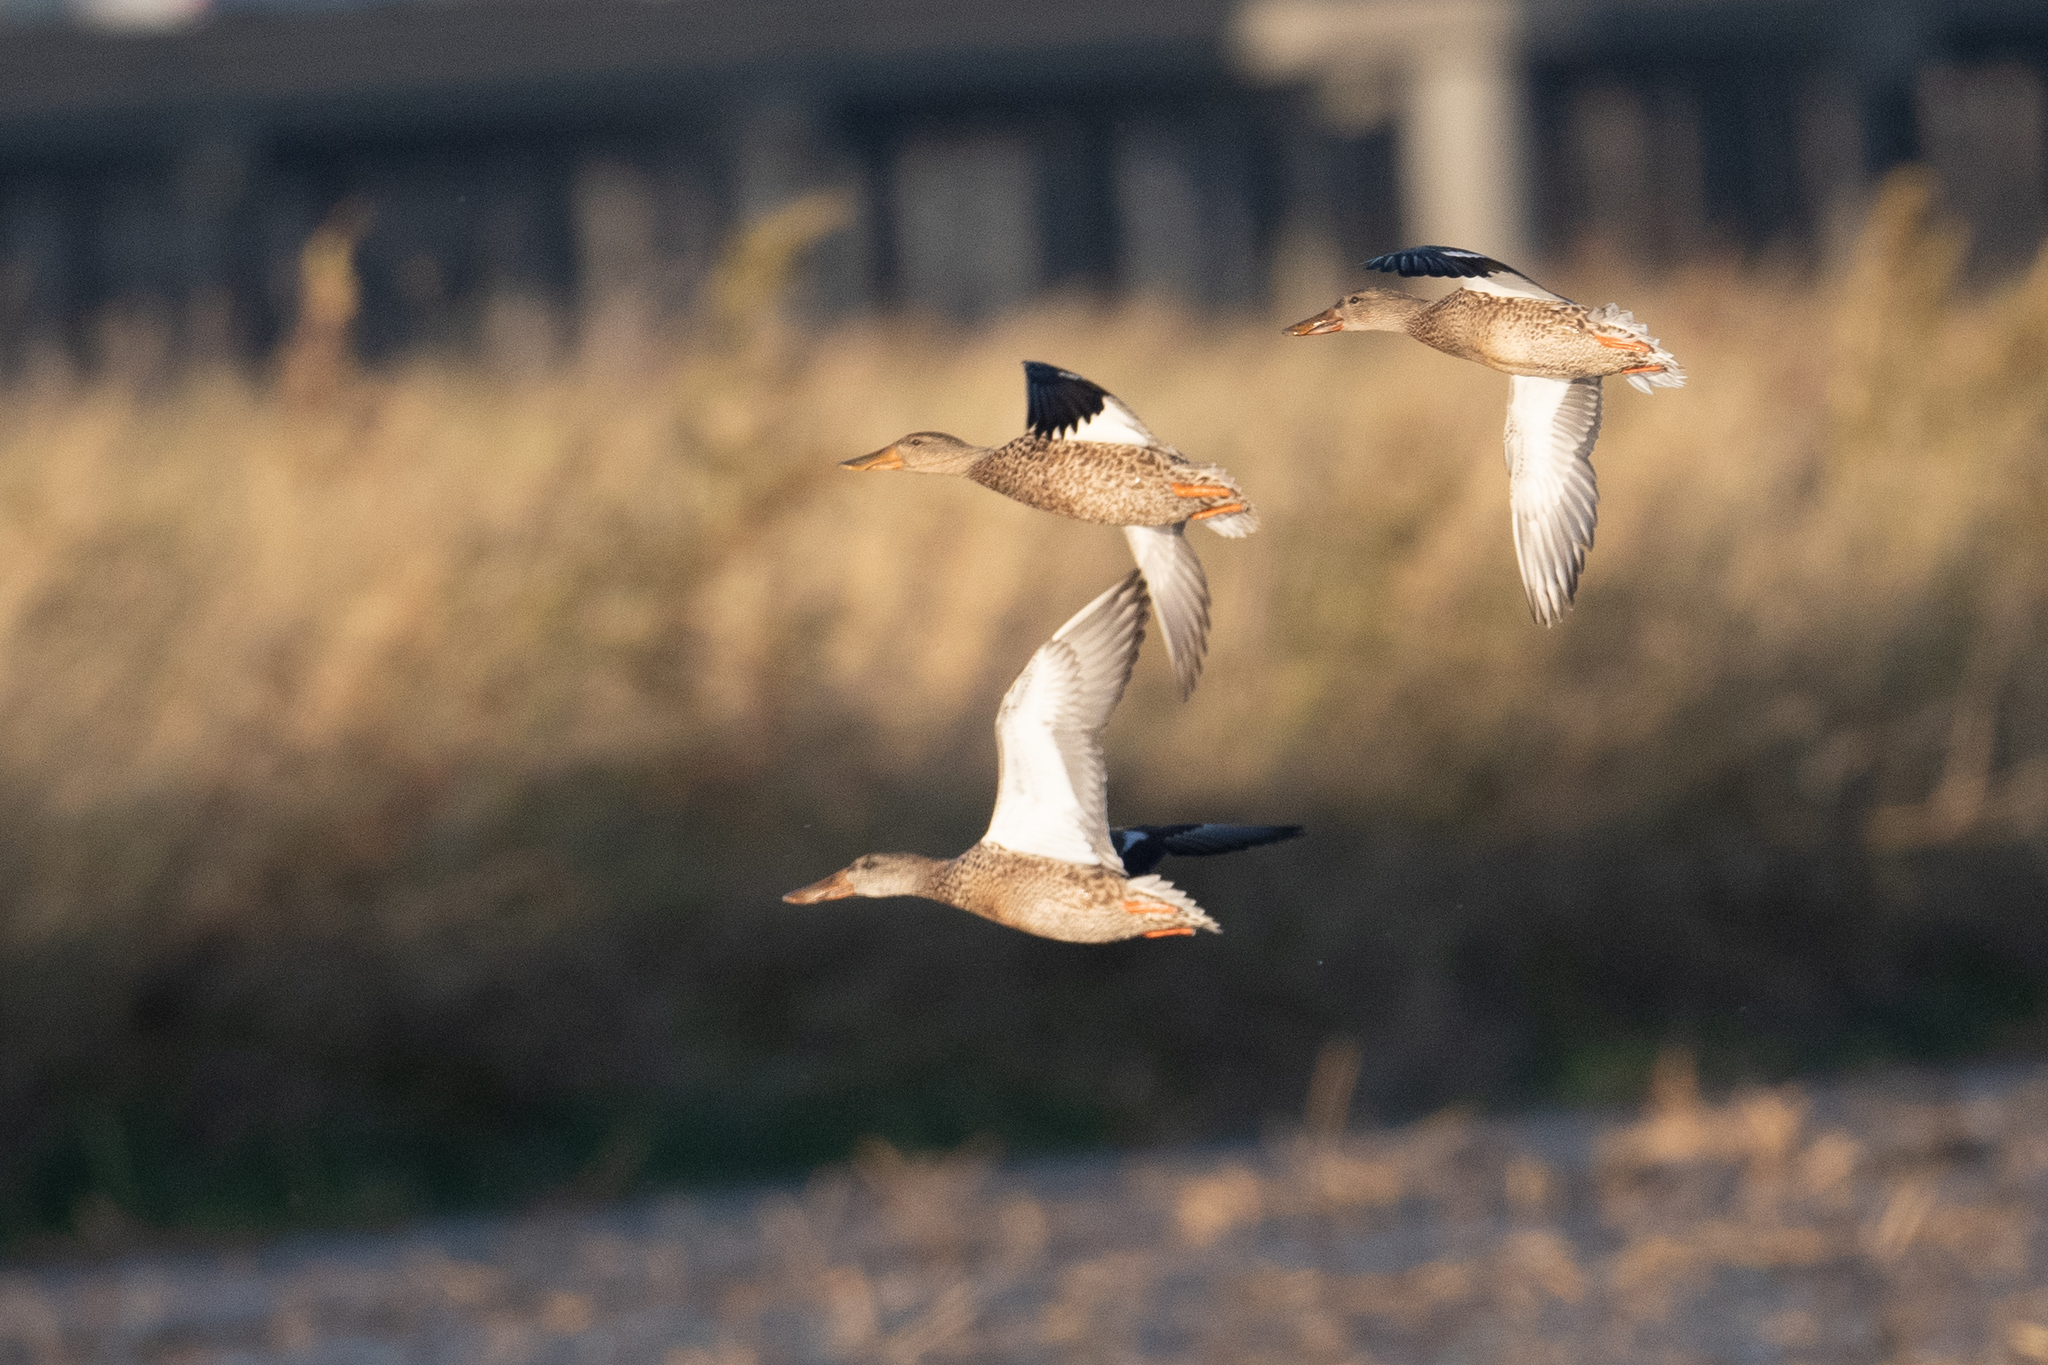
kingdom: Animalia
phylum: Chordata
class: Aves
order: Anseriformes
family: Anatidae
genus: Spatula
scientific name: Spatula clypeata
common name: Northern shoveler
